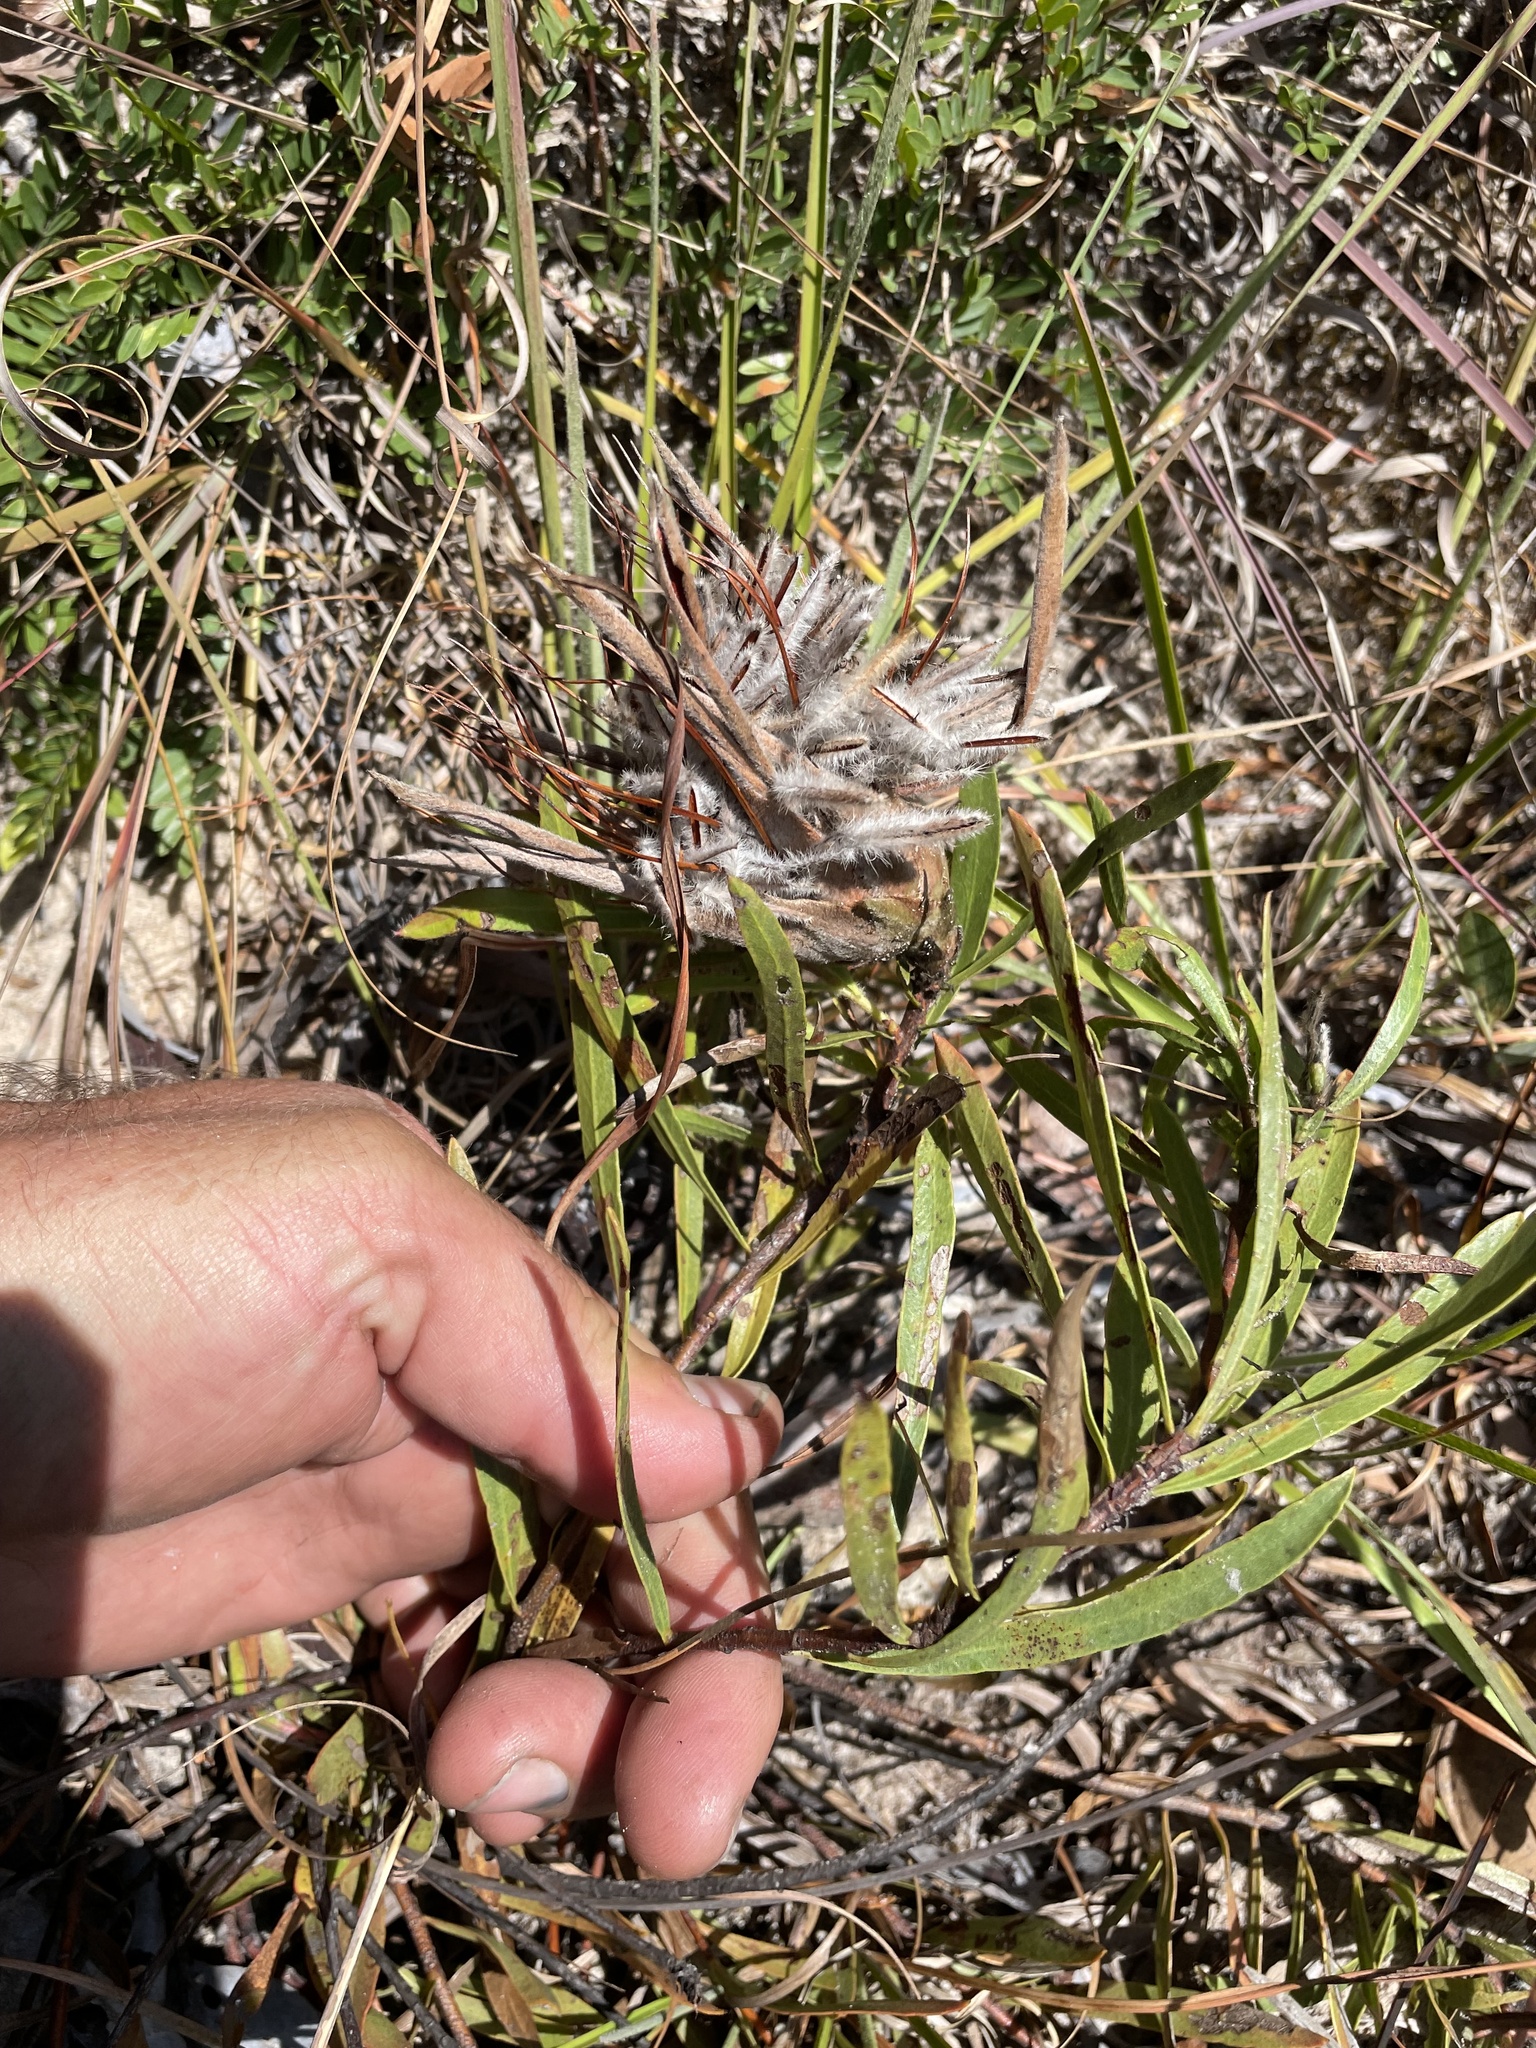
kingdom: Plantae
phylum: Tracheophyta
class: Magnoliopsida
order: Proteales
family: Proteaceae
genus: Protea
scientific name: Protea poggei
